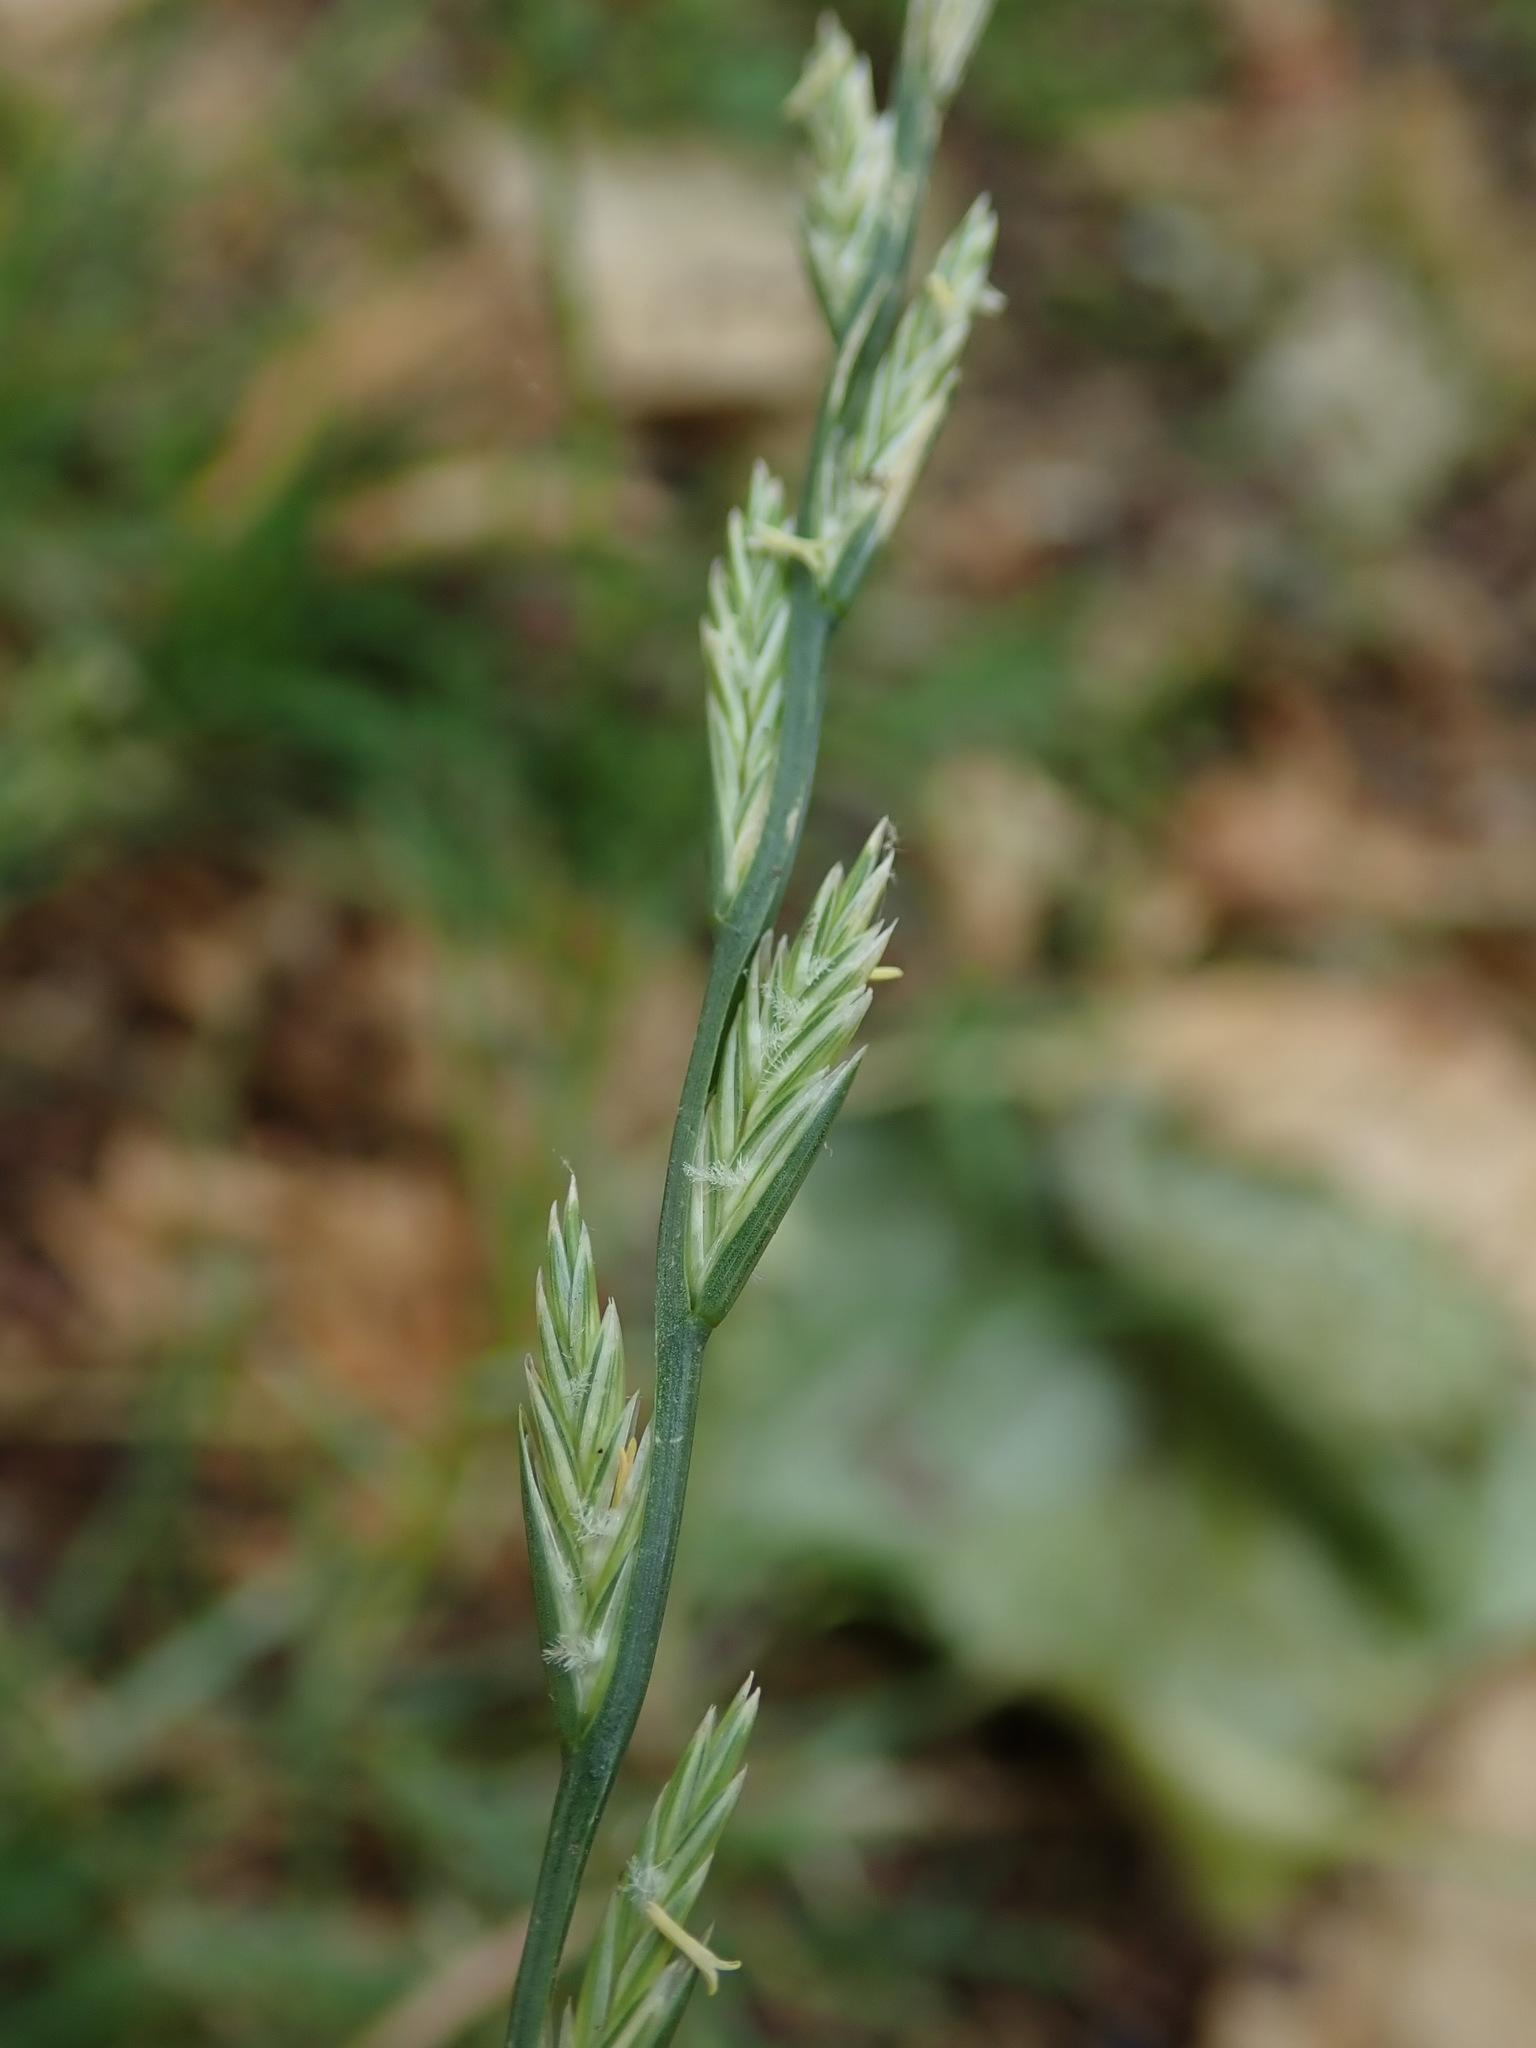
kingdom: Plantae
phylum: Tracheophyta
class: Liliopsida
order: Poales
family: Poaceae
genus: Lolium
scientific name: Lolium perenne
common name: Perennial ryegrass
